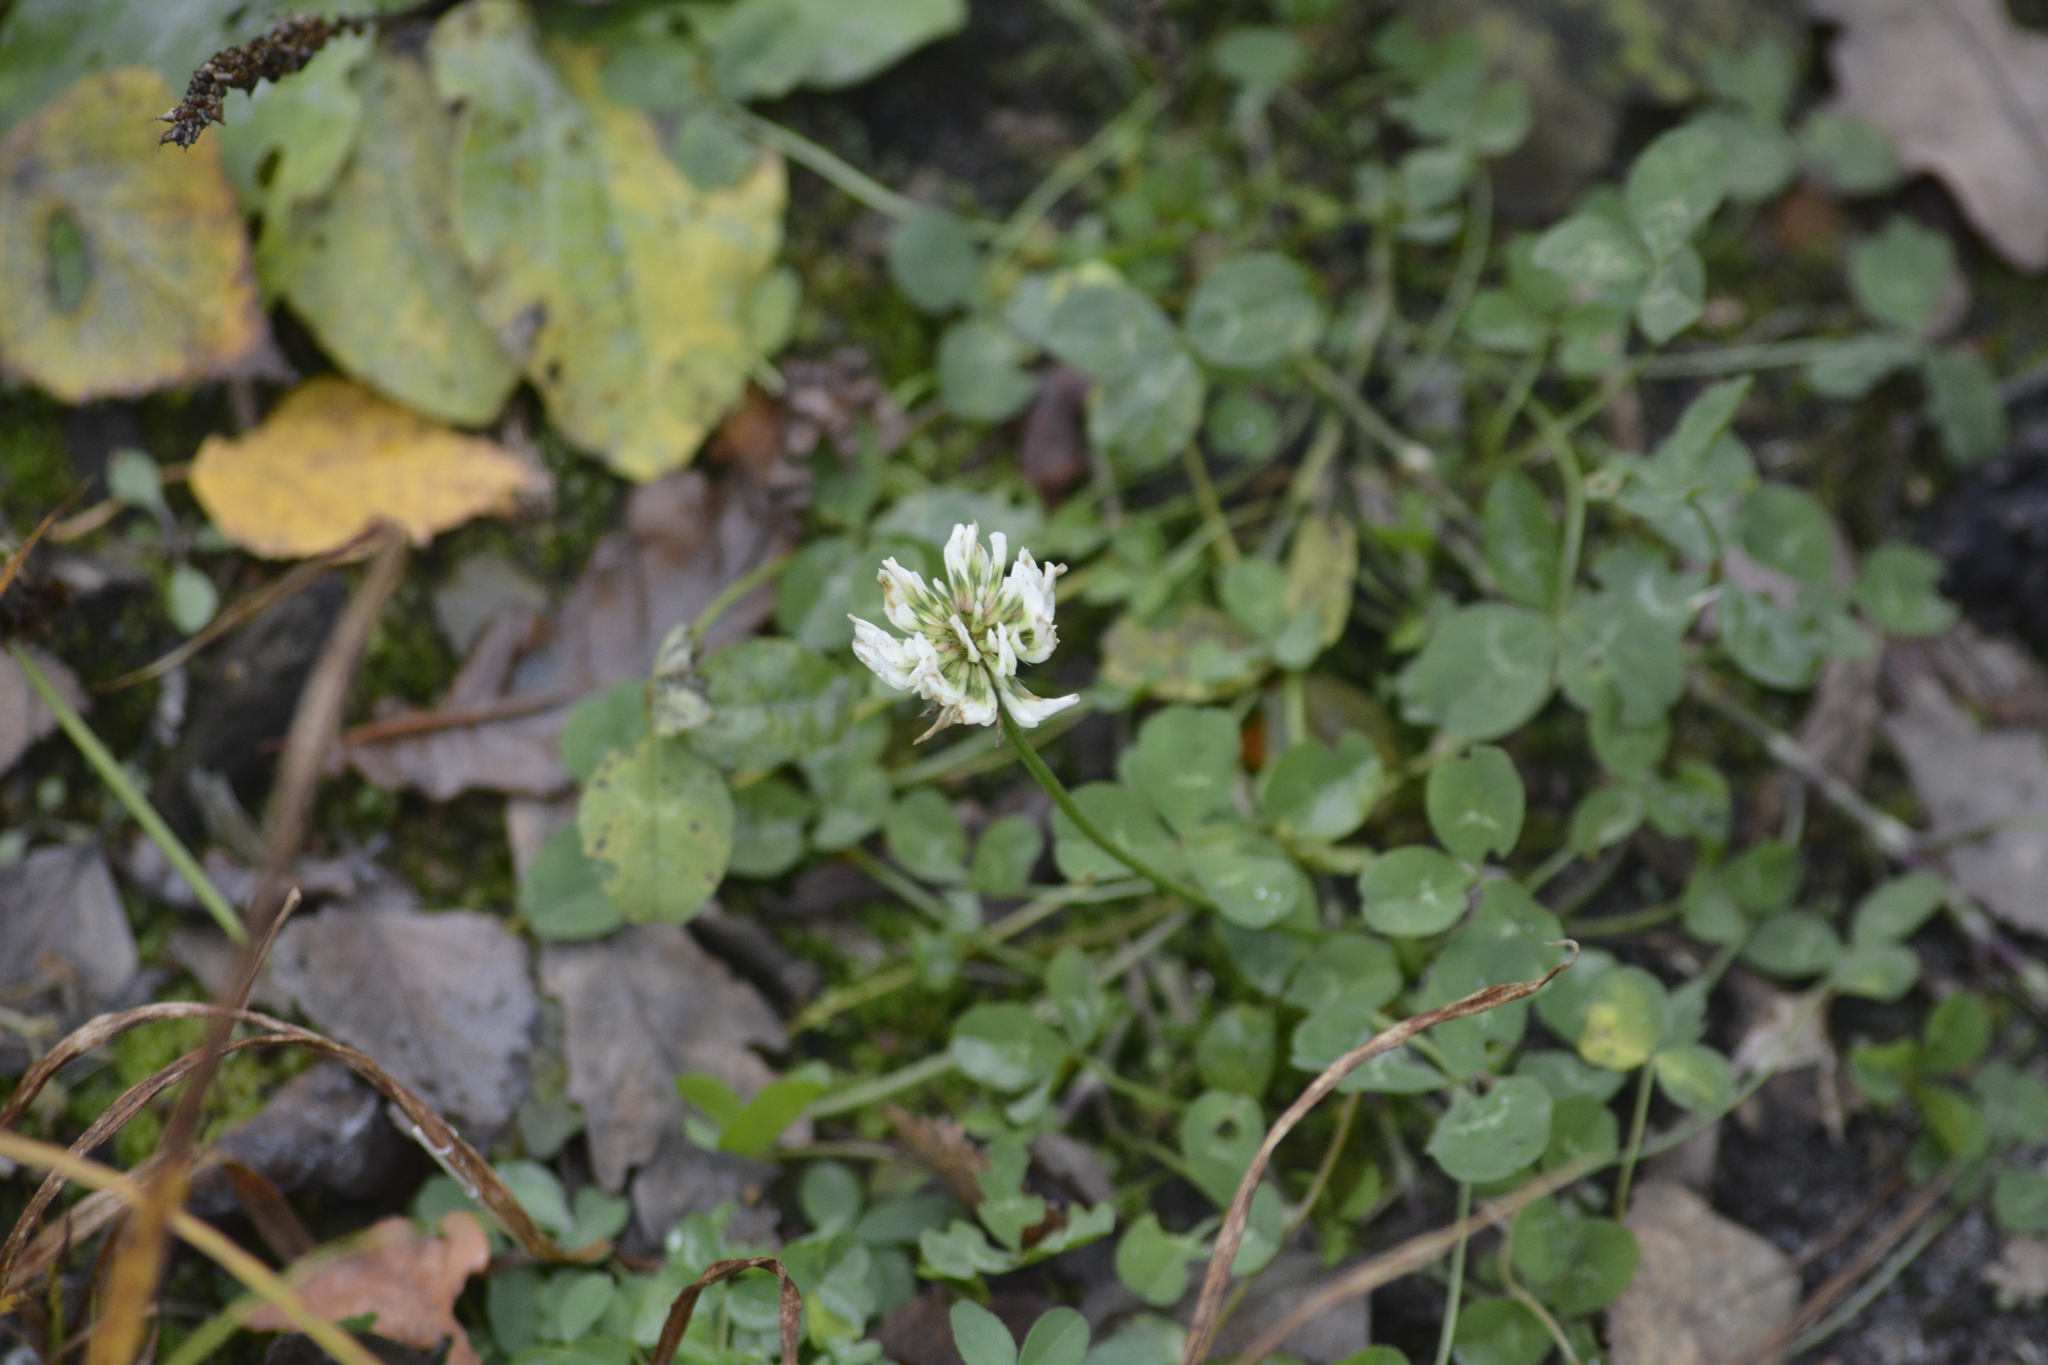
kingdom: Plantae
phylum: Tracheophyta
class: Magnoliopsida
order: Fabales
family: Fabaceae
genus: Trifolium
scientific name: Trifolium repens
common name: White clover
